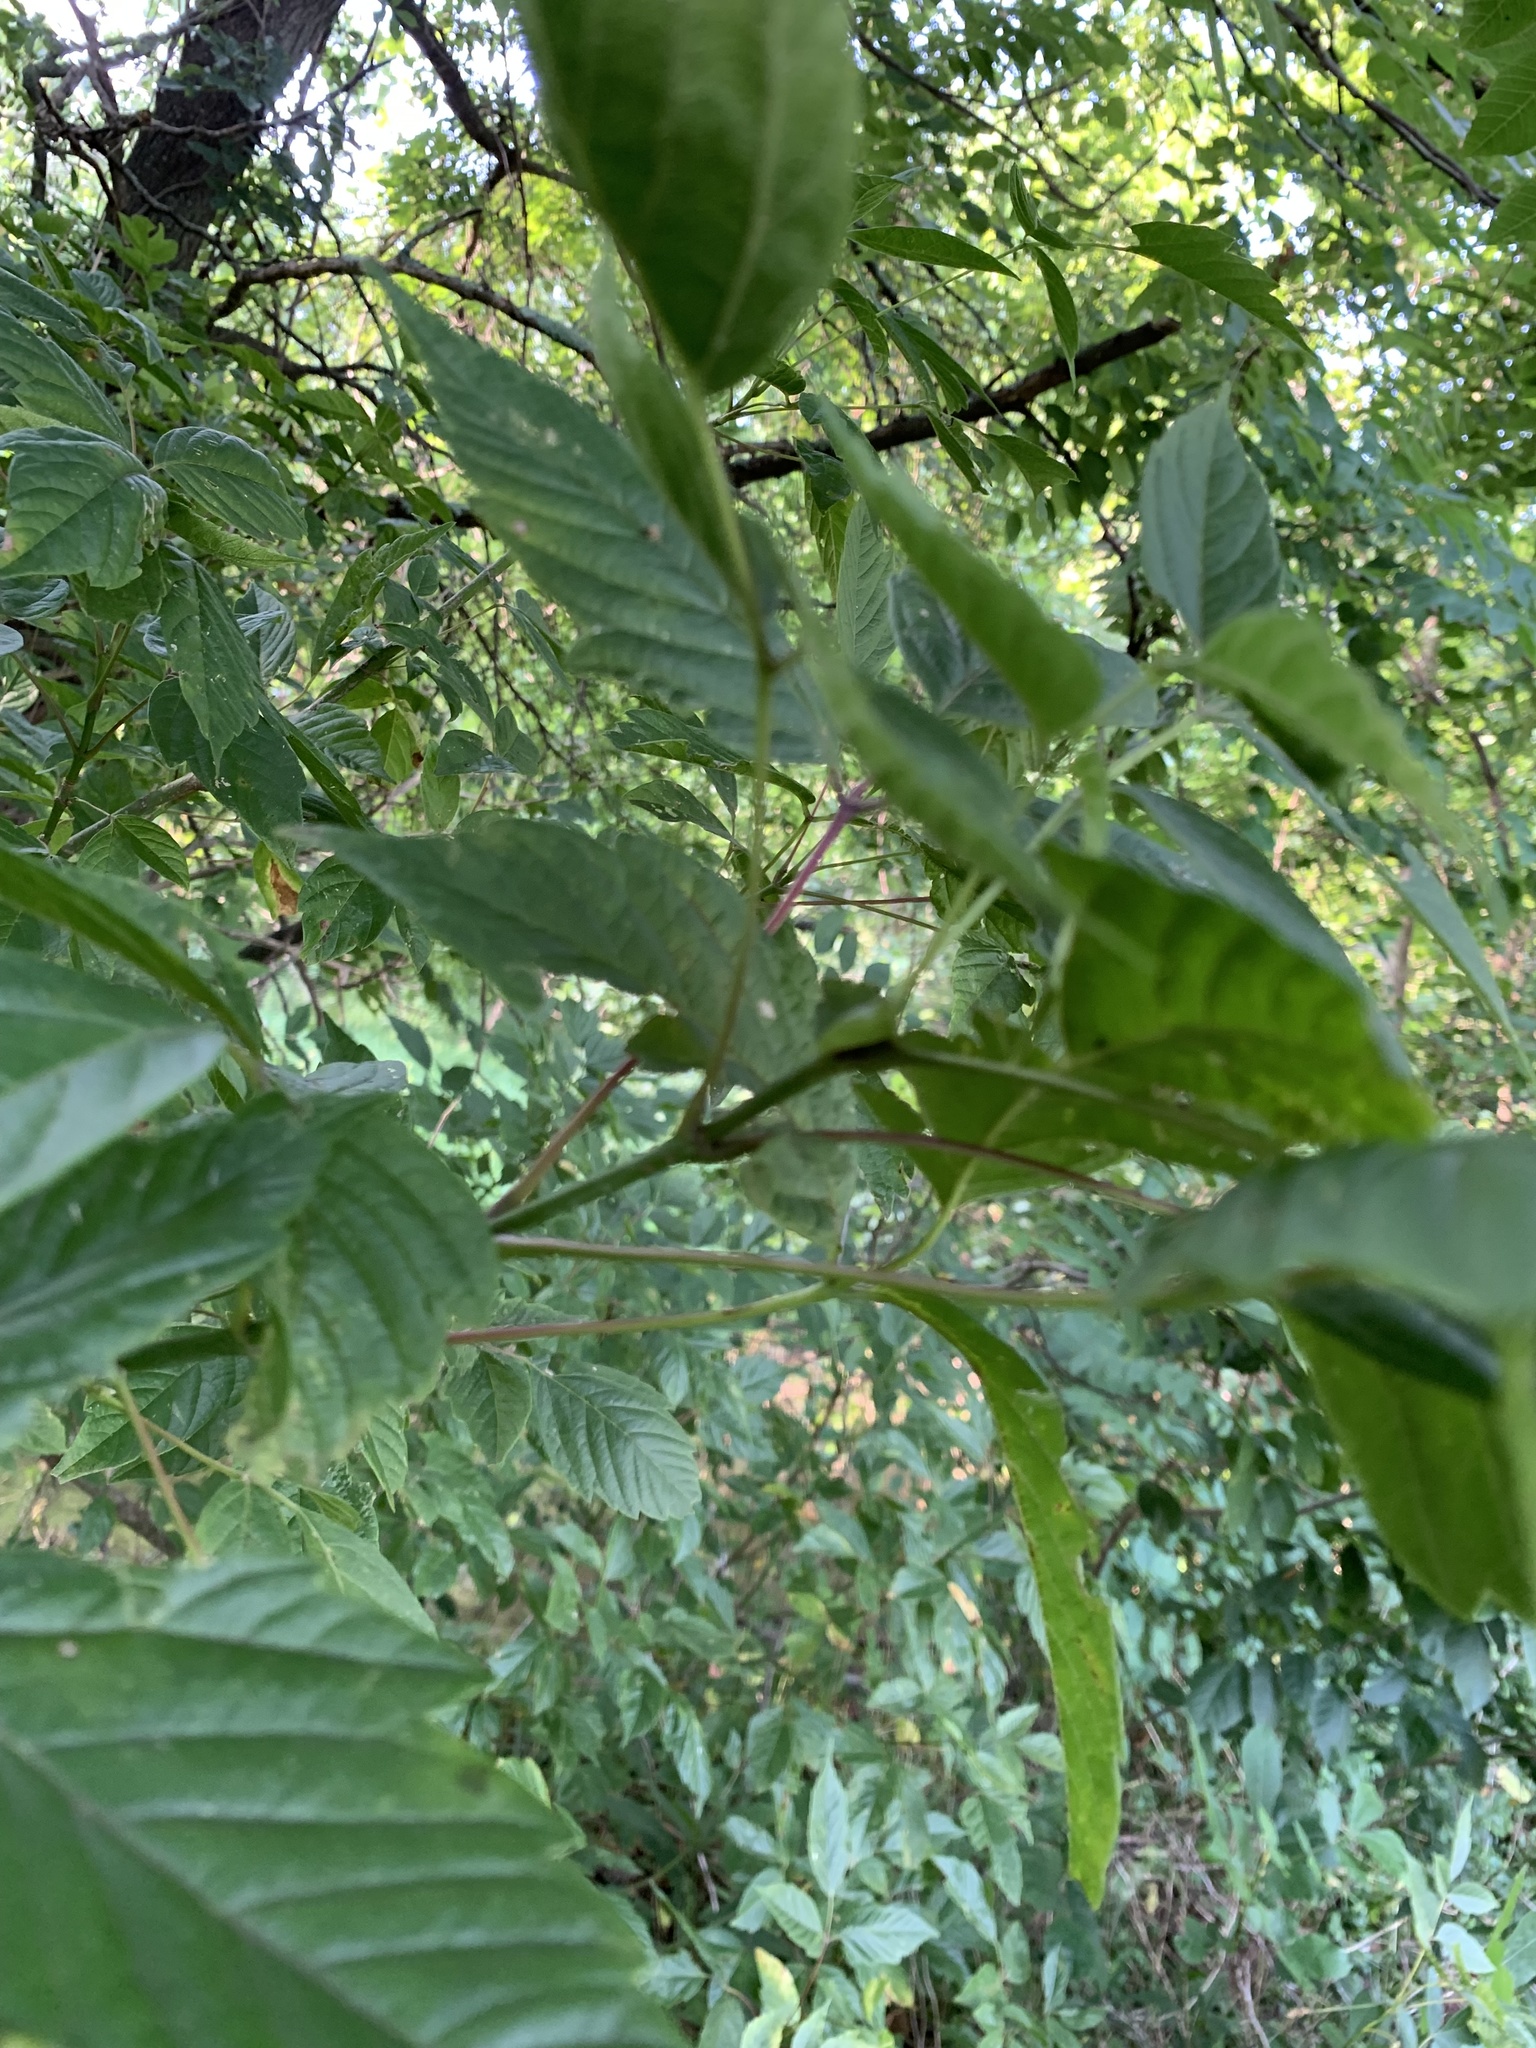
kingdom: Plantae
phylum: Tracheophyta
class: Magnoliopsida
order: Sapindales
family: Sapindaceae
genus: Acer
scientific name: Acer negundo
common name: Ashleaf maple
